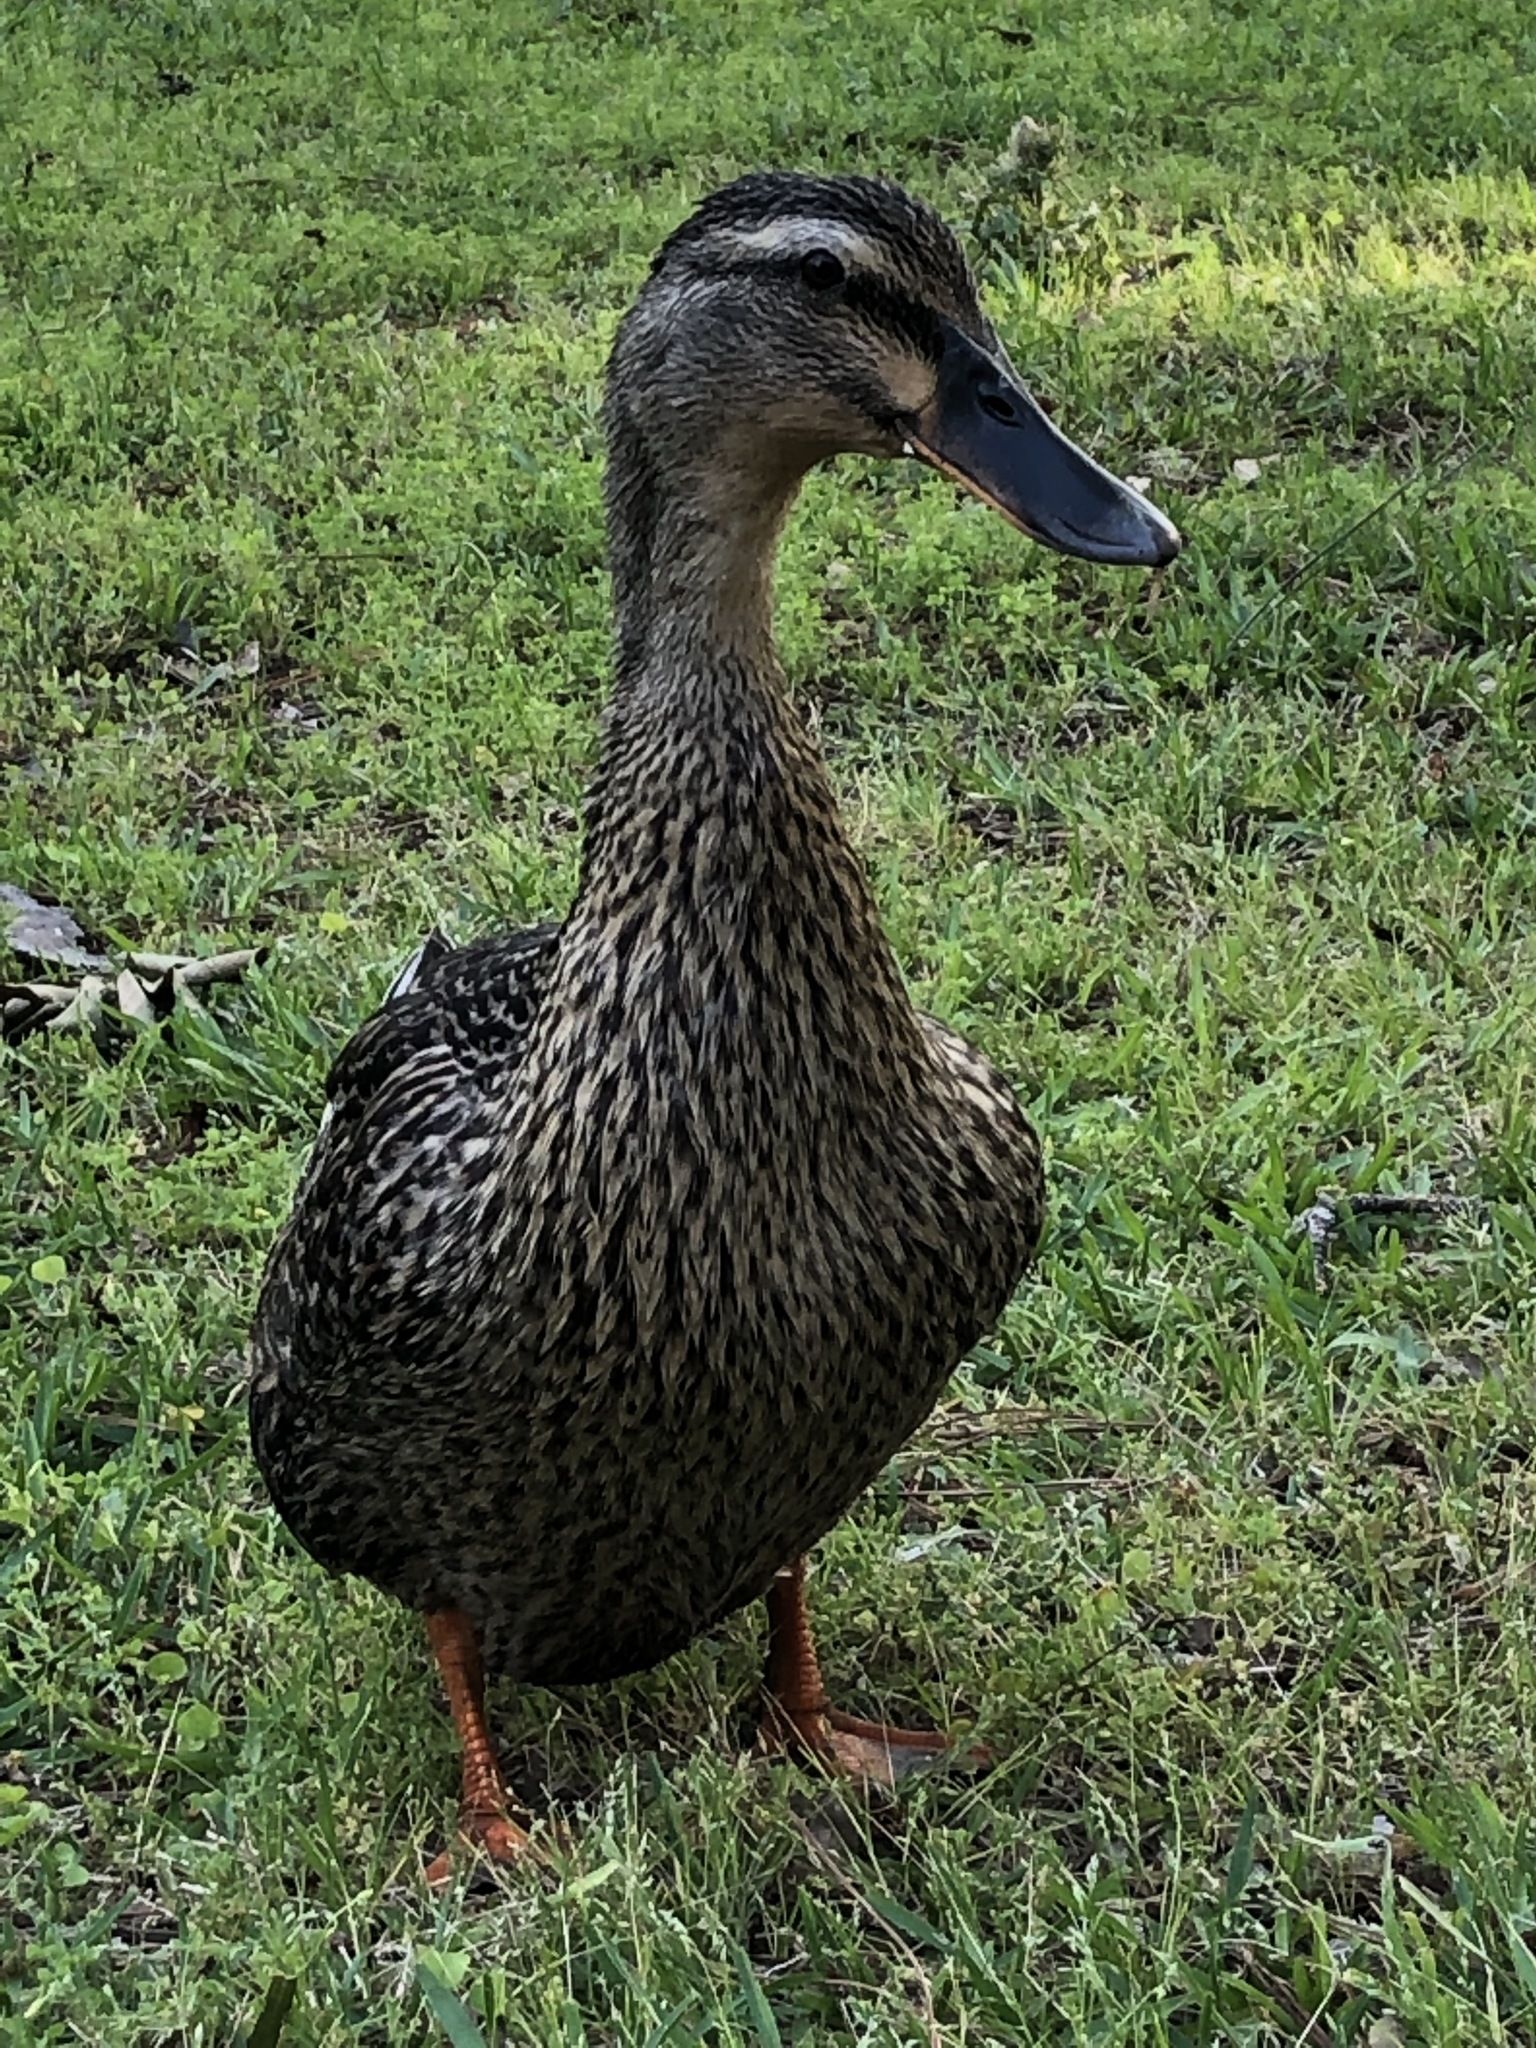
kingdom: Animalia
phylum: Chordata
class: Aves
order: Anseriformes
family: Anatidae
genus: Anas
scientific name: Anas platyrhynchos
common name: Mallard
